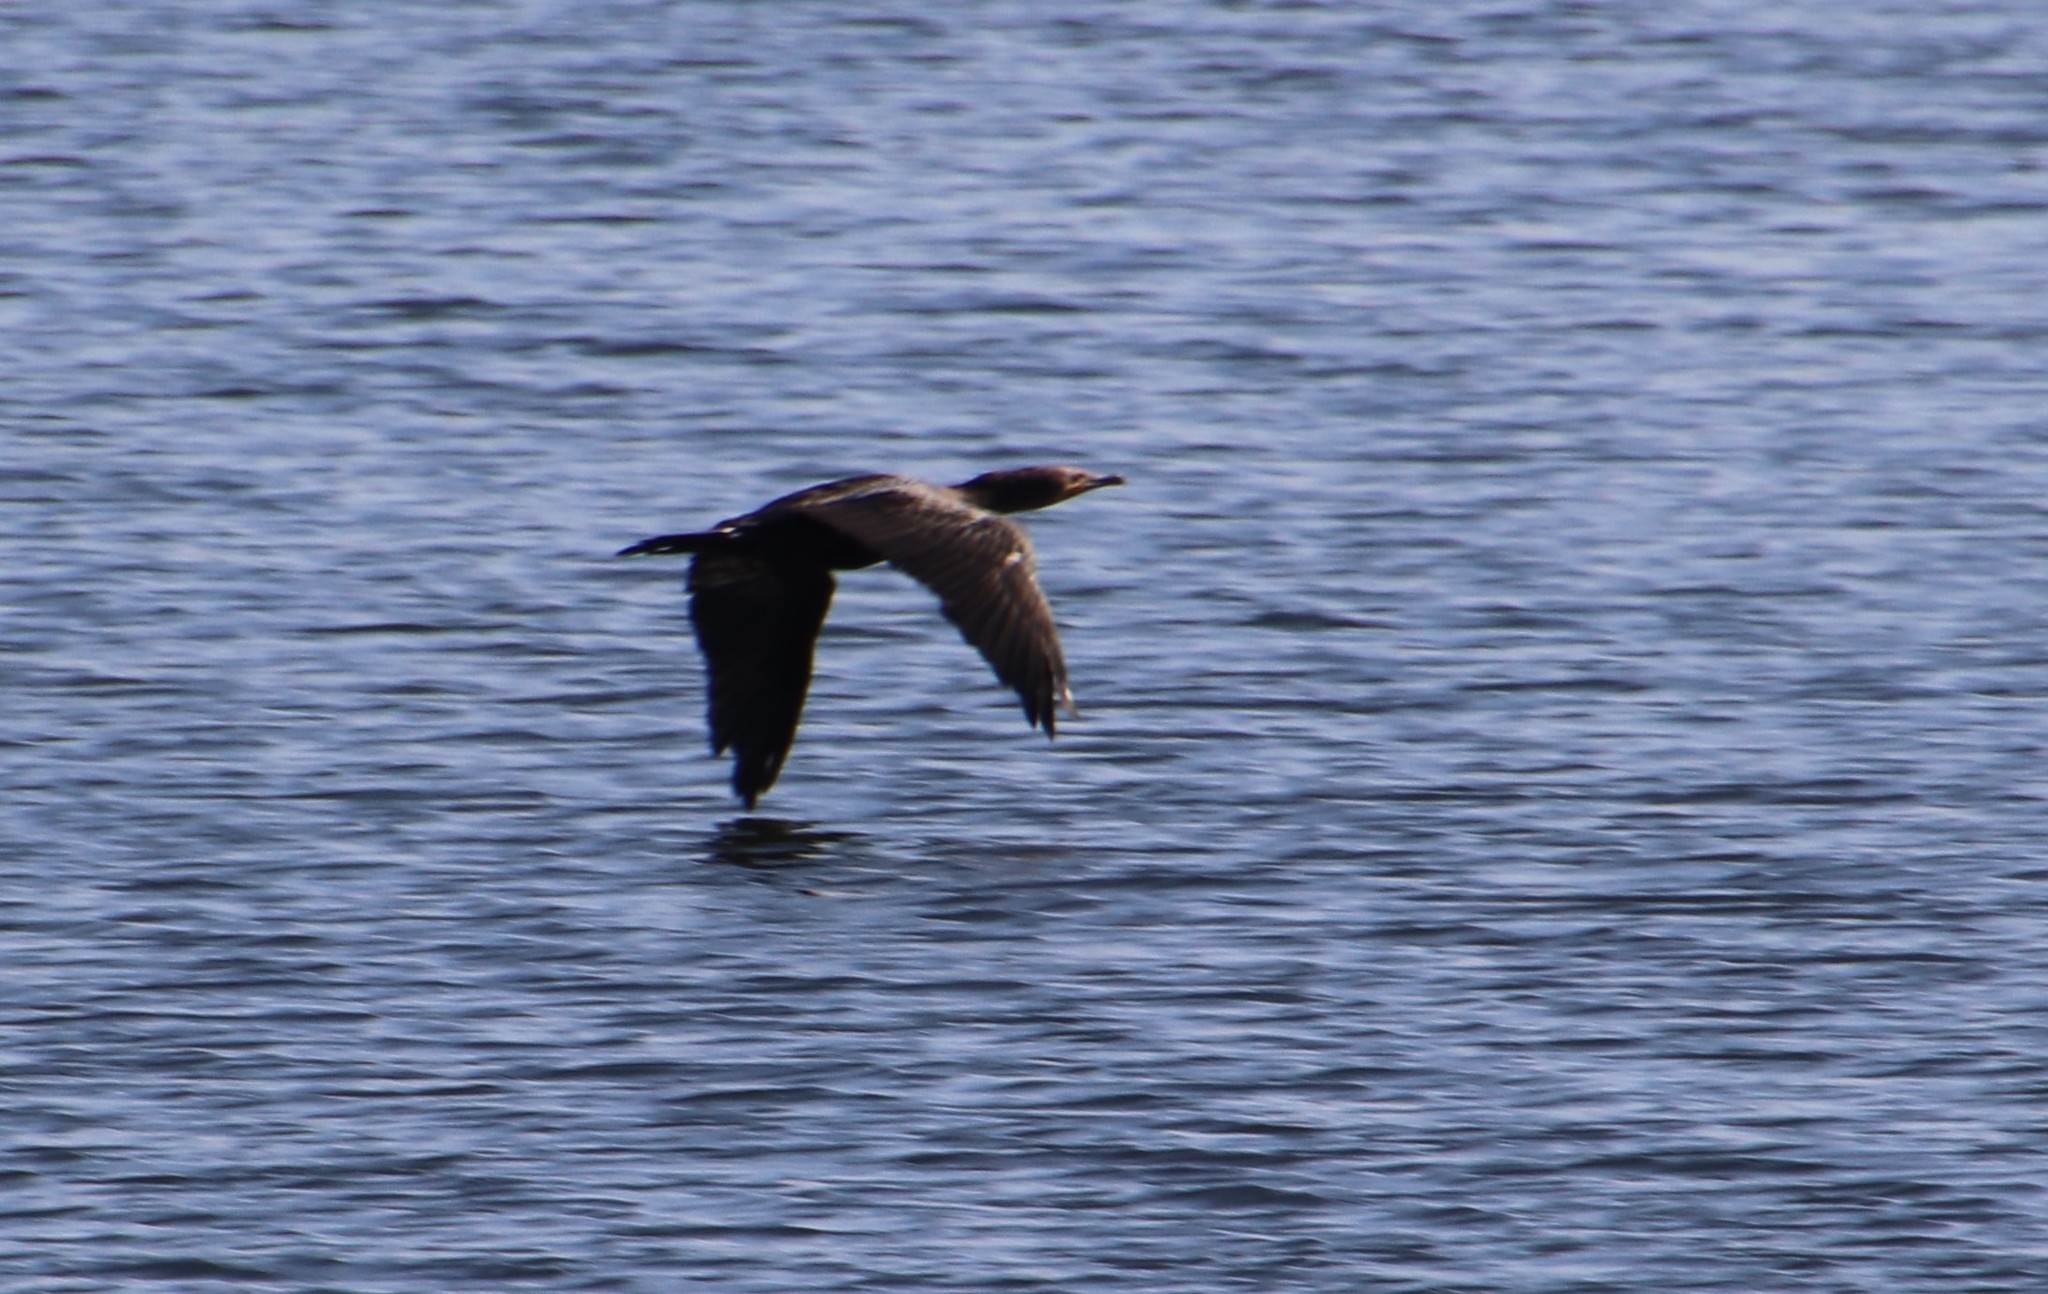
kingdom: Animalia
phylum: Chordata
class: Aves
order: Suliformes
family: Phalacrocoracidae
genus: Phalacrocorax
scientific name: Phalacrocorax auritus
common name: Double-crested cormorant
